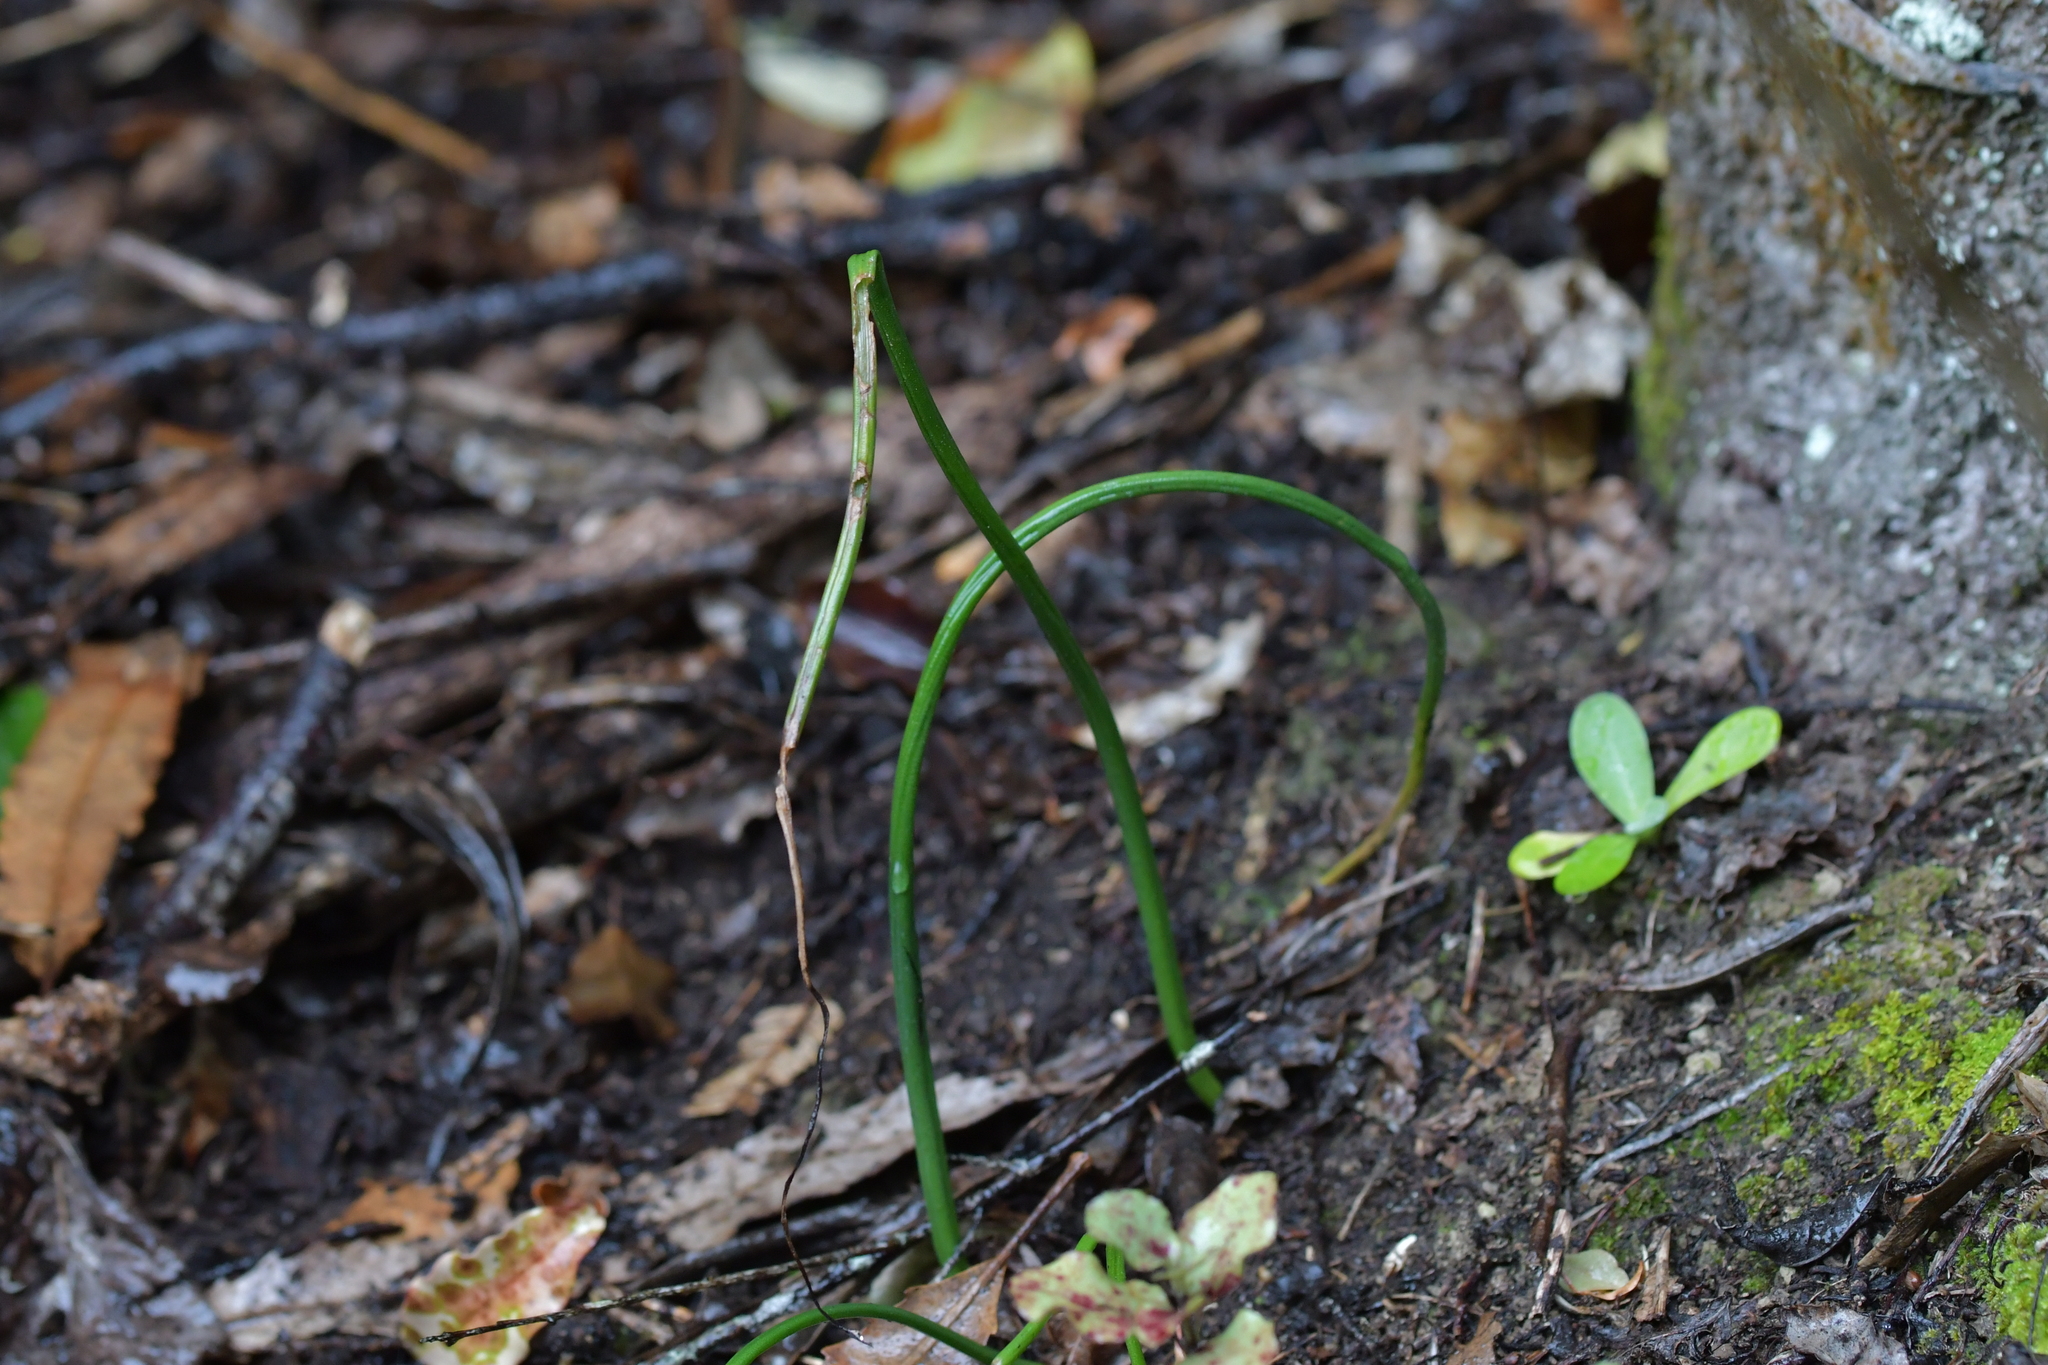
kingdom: Plantae
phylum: Tracheophyta
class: Liliopsida
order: Asparagales
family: Orchidaceae
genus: Microtis
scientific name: Microtis unifolia
